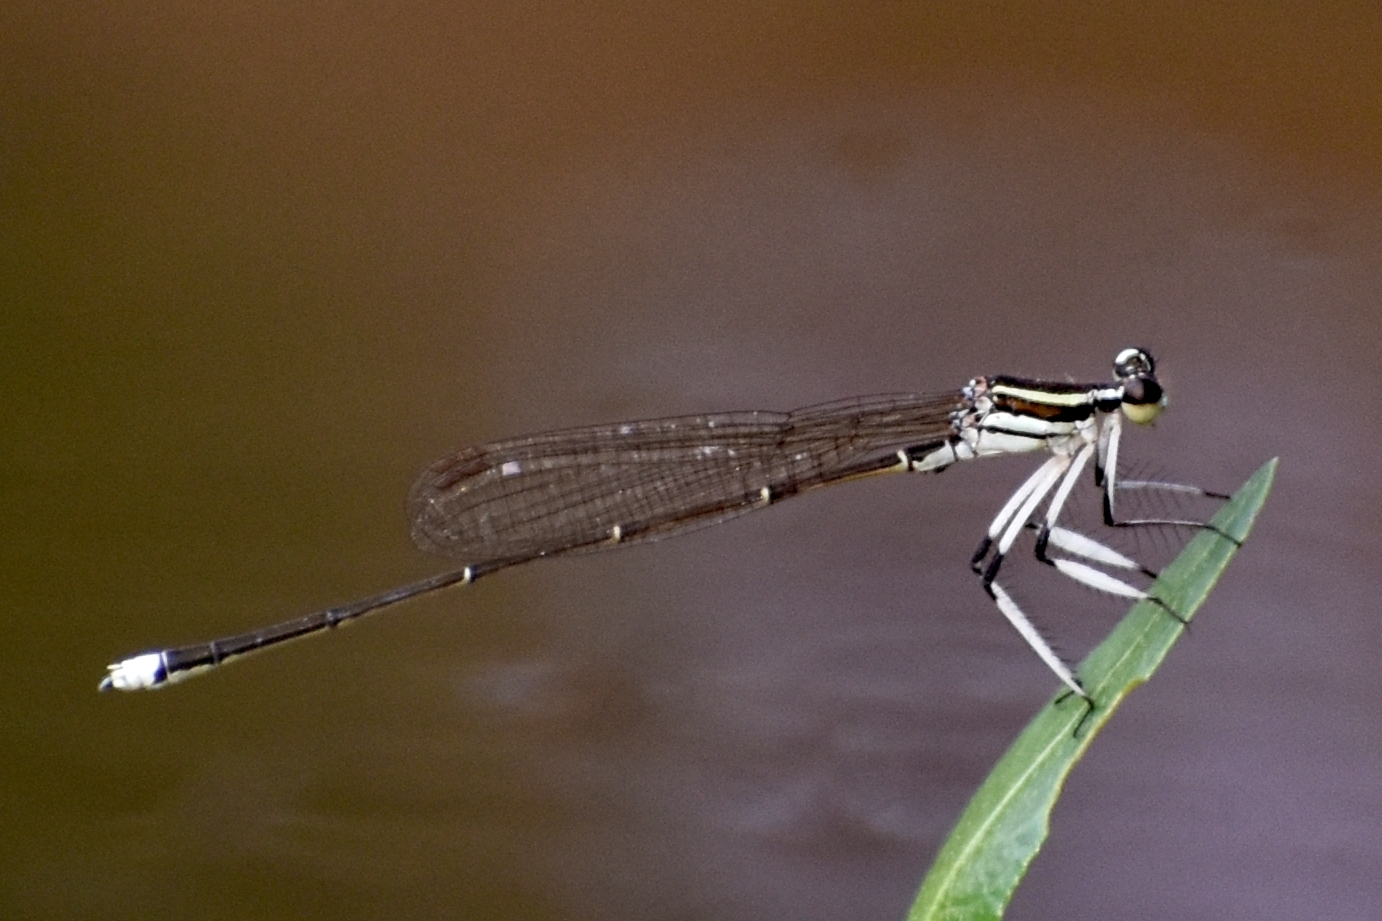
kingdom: Animalia
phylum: Arthropoda
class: Insecta
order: Odonata
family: Platycnemididae
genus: Pseudocopera
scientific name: Pseudocopera ciliata
